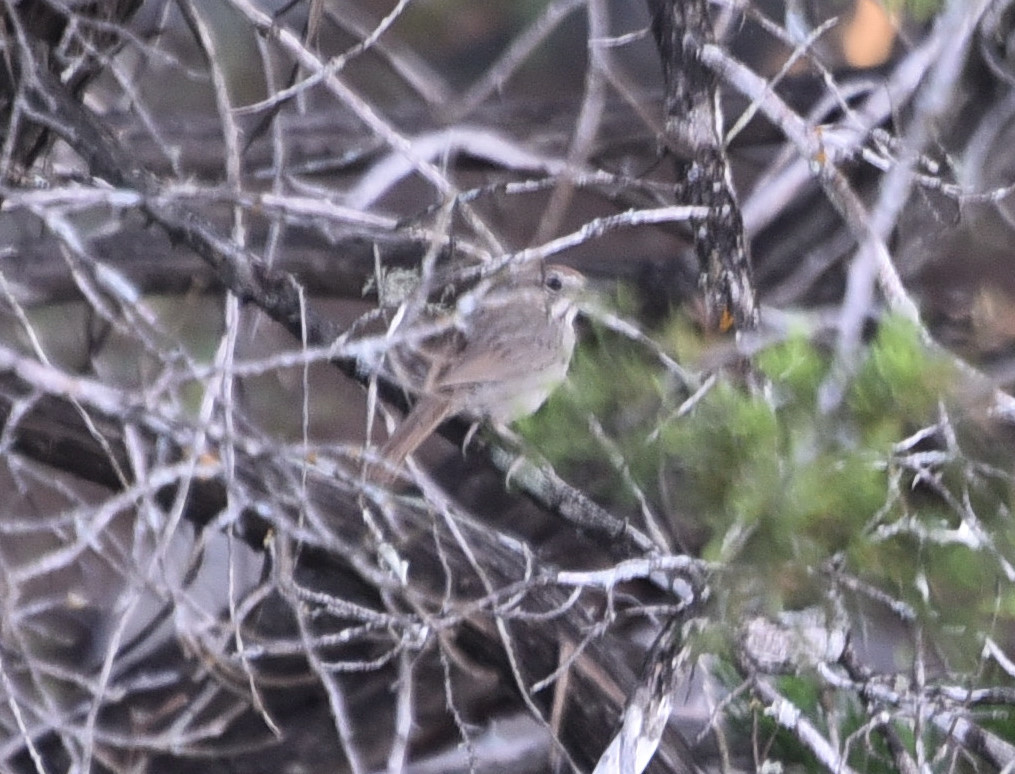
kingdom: Animalia
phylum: Chordata
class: Aves
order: Passeriformes
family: Passerellidae
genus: Aimophila
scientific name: Aimophila ruficeps
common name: Rufous-crowned sparrow
